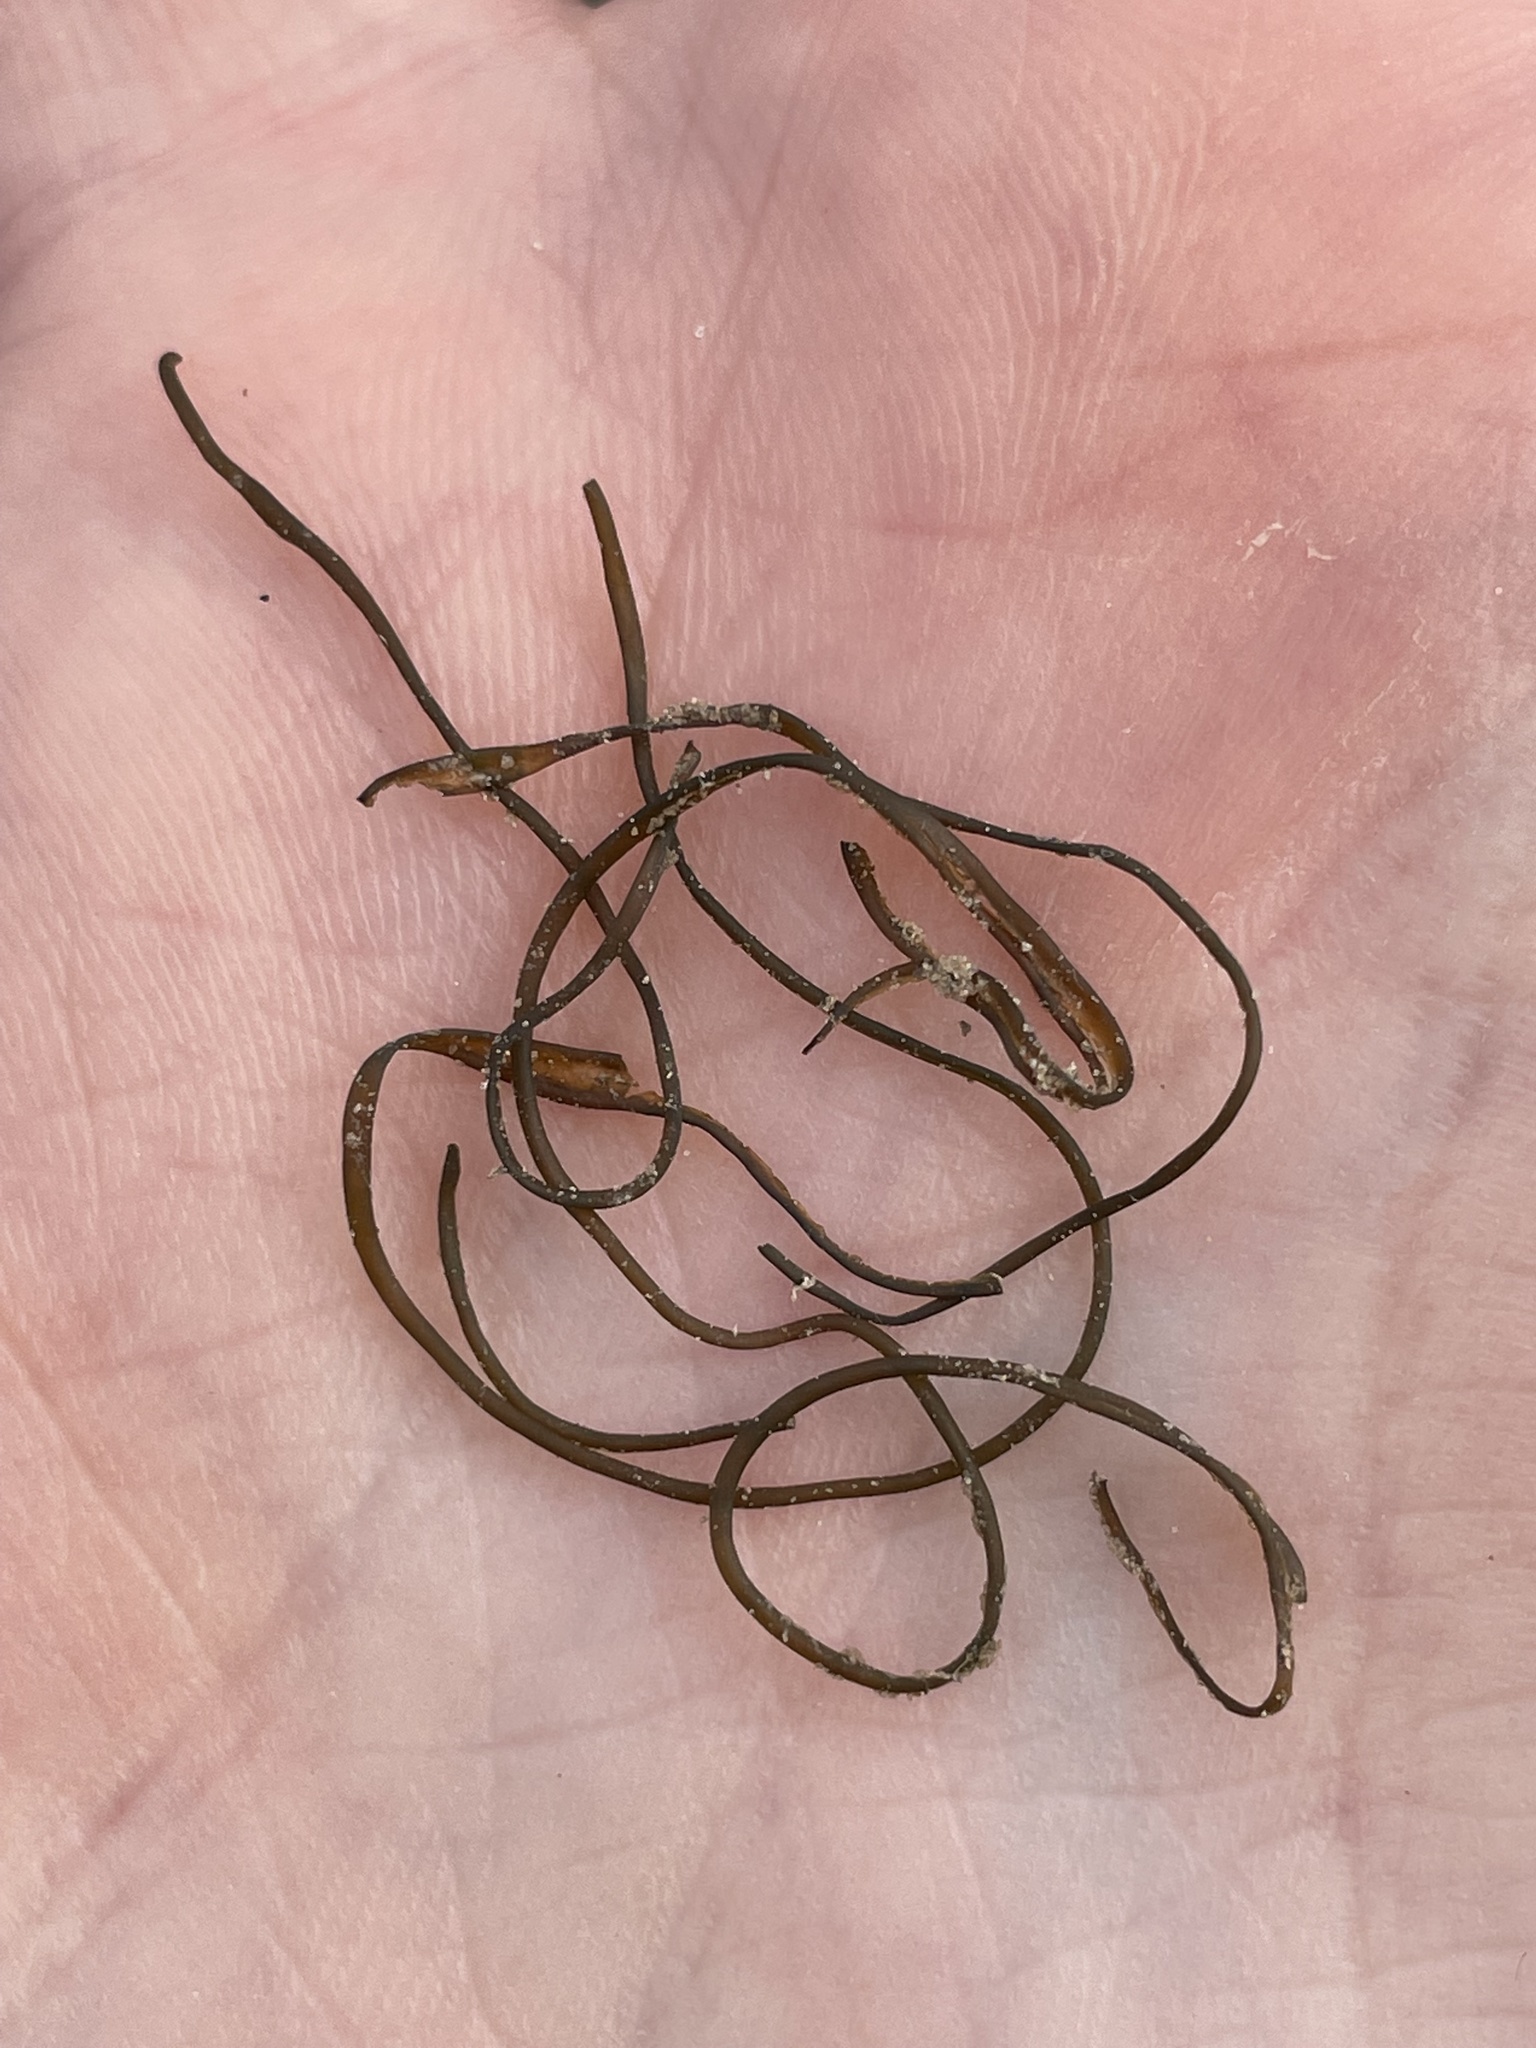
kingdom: Bacteria
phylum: Cyanobacteria
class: Cyanobacteriia
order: Cyanobacteriales
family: Nostocaceae
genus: Nostoc
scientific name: Nostoc flagelliforme
